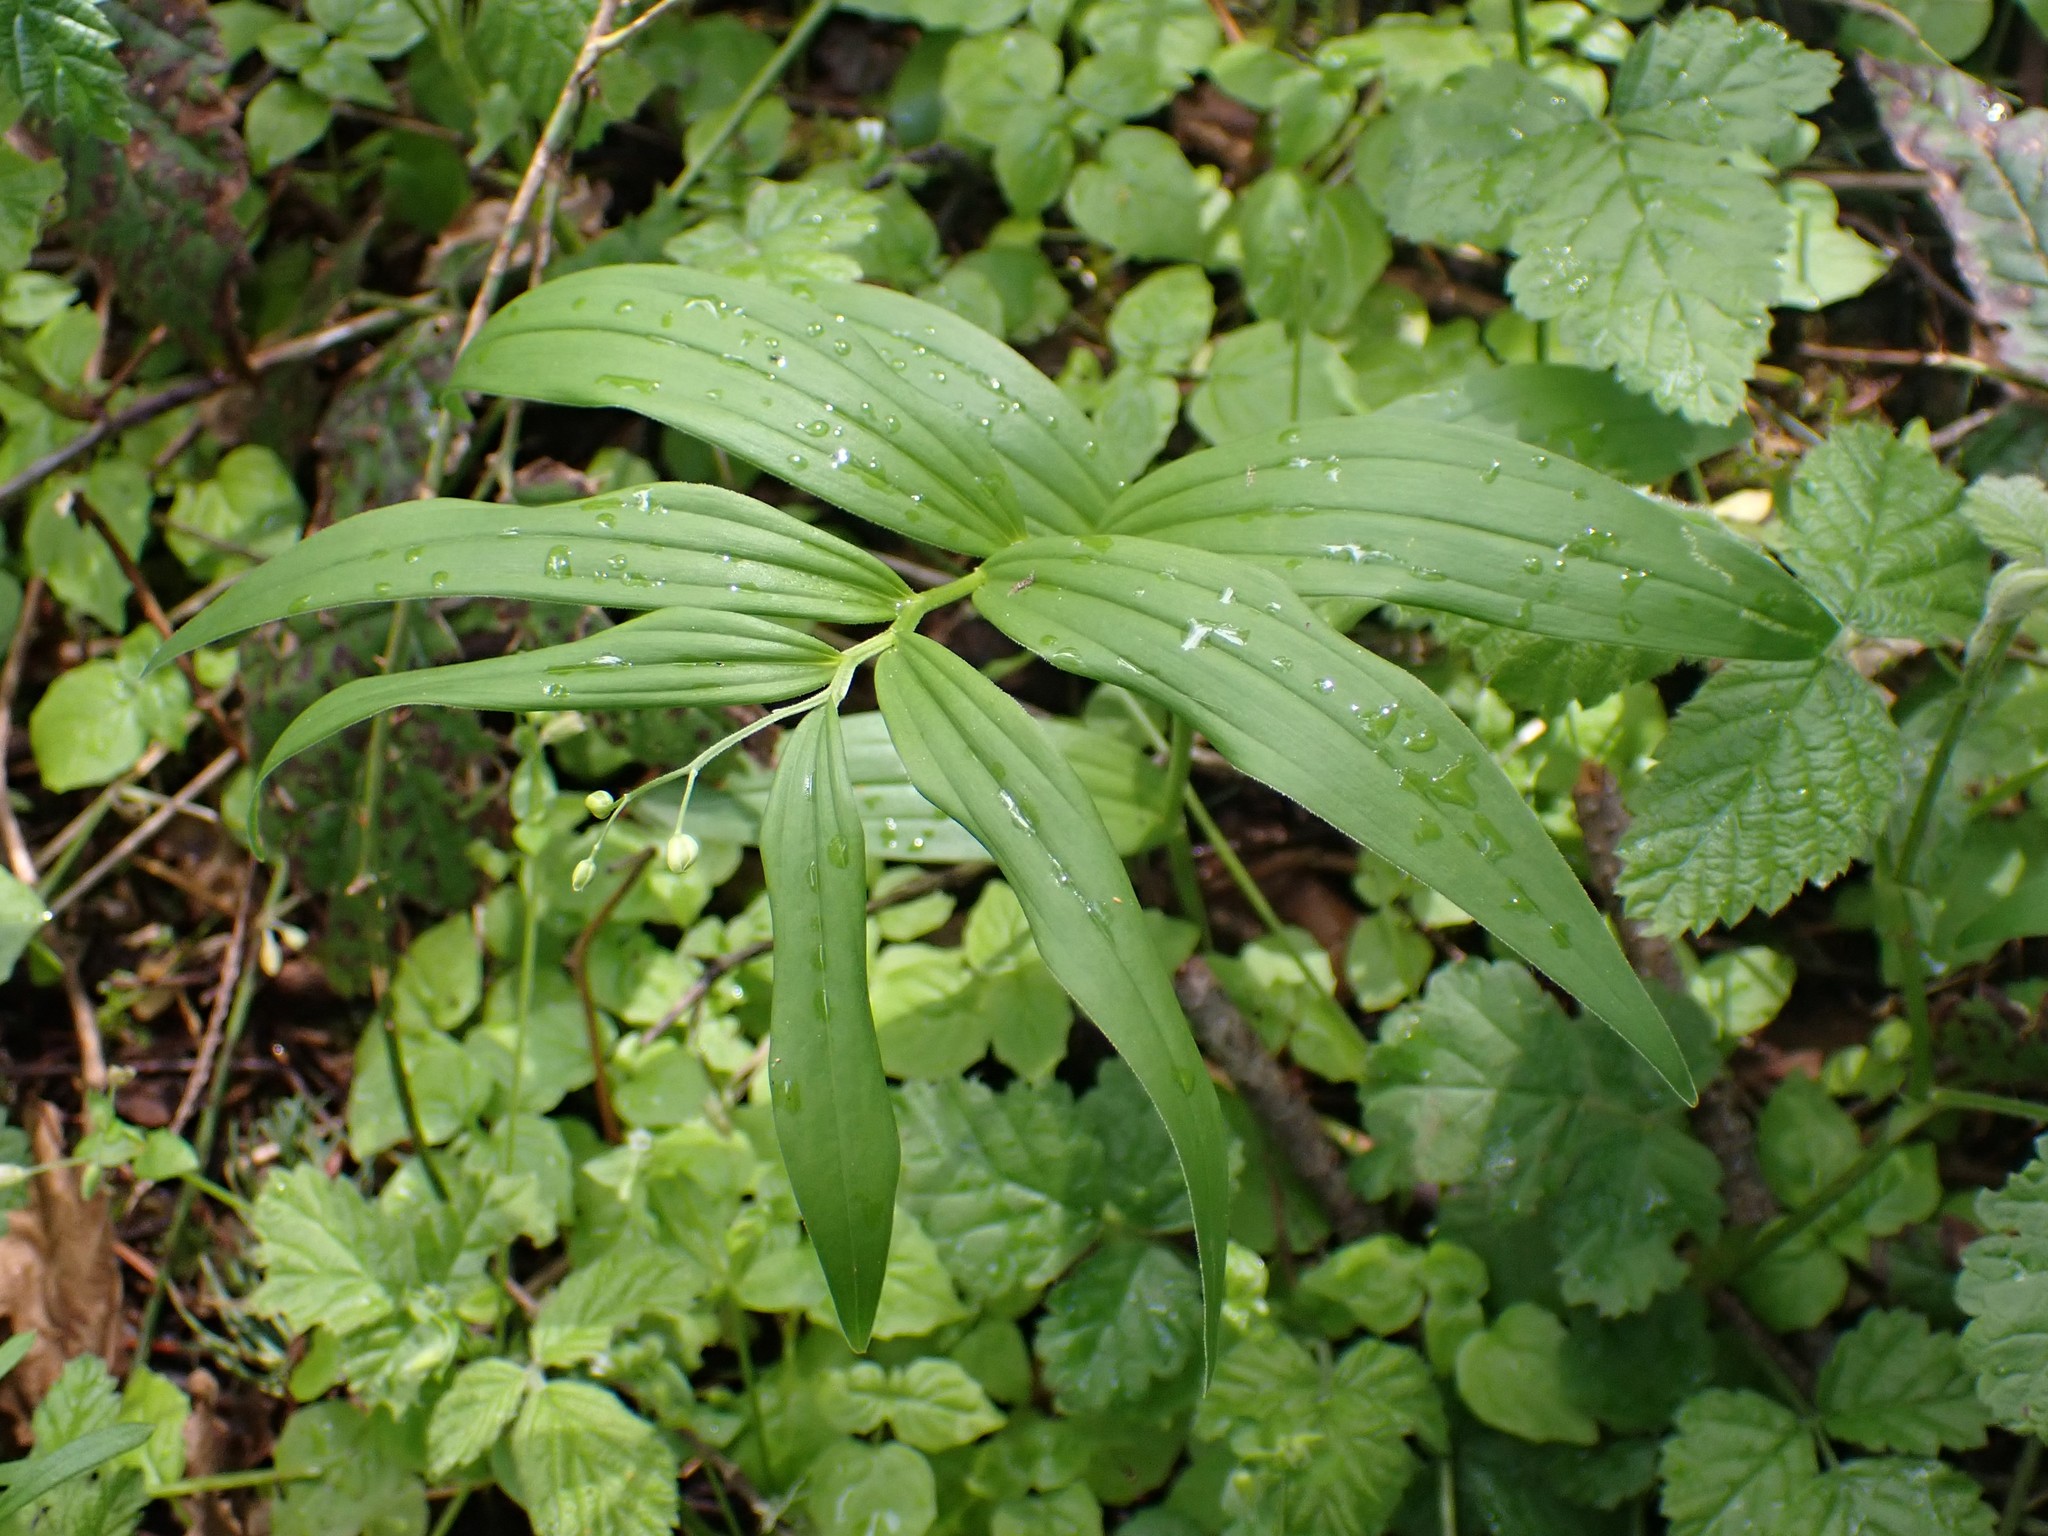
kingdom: Plantae
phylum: Tracheophyta
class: Liliopsida
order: Asparagales
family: Asparagaceae
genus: Maianthemum
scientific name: Maianthemum stellatum
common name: Little false solomon's seal
